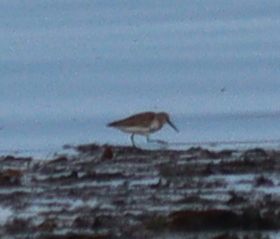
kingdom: Animalia
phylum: Chordata
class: Aves
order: Charadriiformes
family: Scolopacidae
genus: Calidris
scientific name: Calidris alpina
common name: Dunlin
